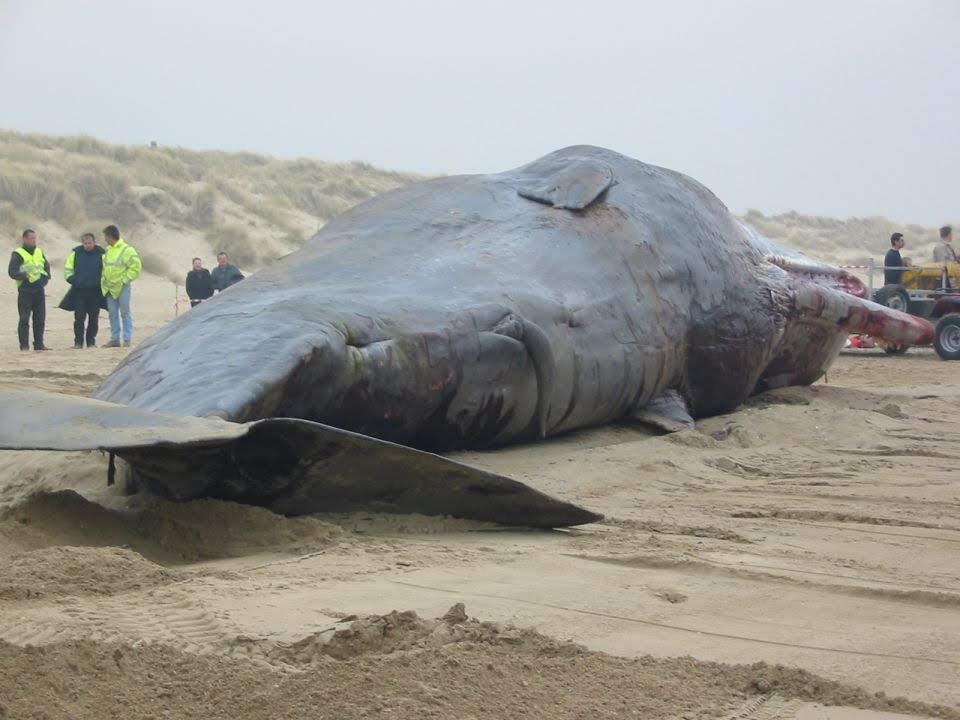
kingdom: Animalia
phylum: Chordata
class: Mammalia
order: Cetacea
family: Physeteridae
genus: Physeter
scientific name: Physeter macrocephalus
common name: Sperm whale
